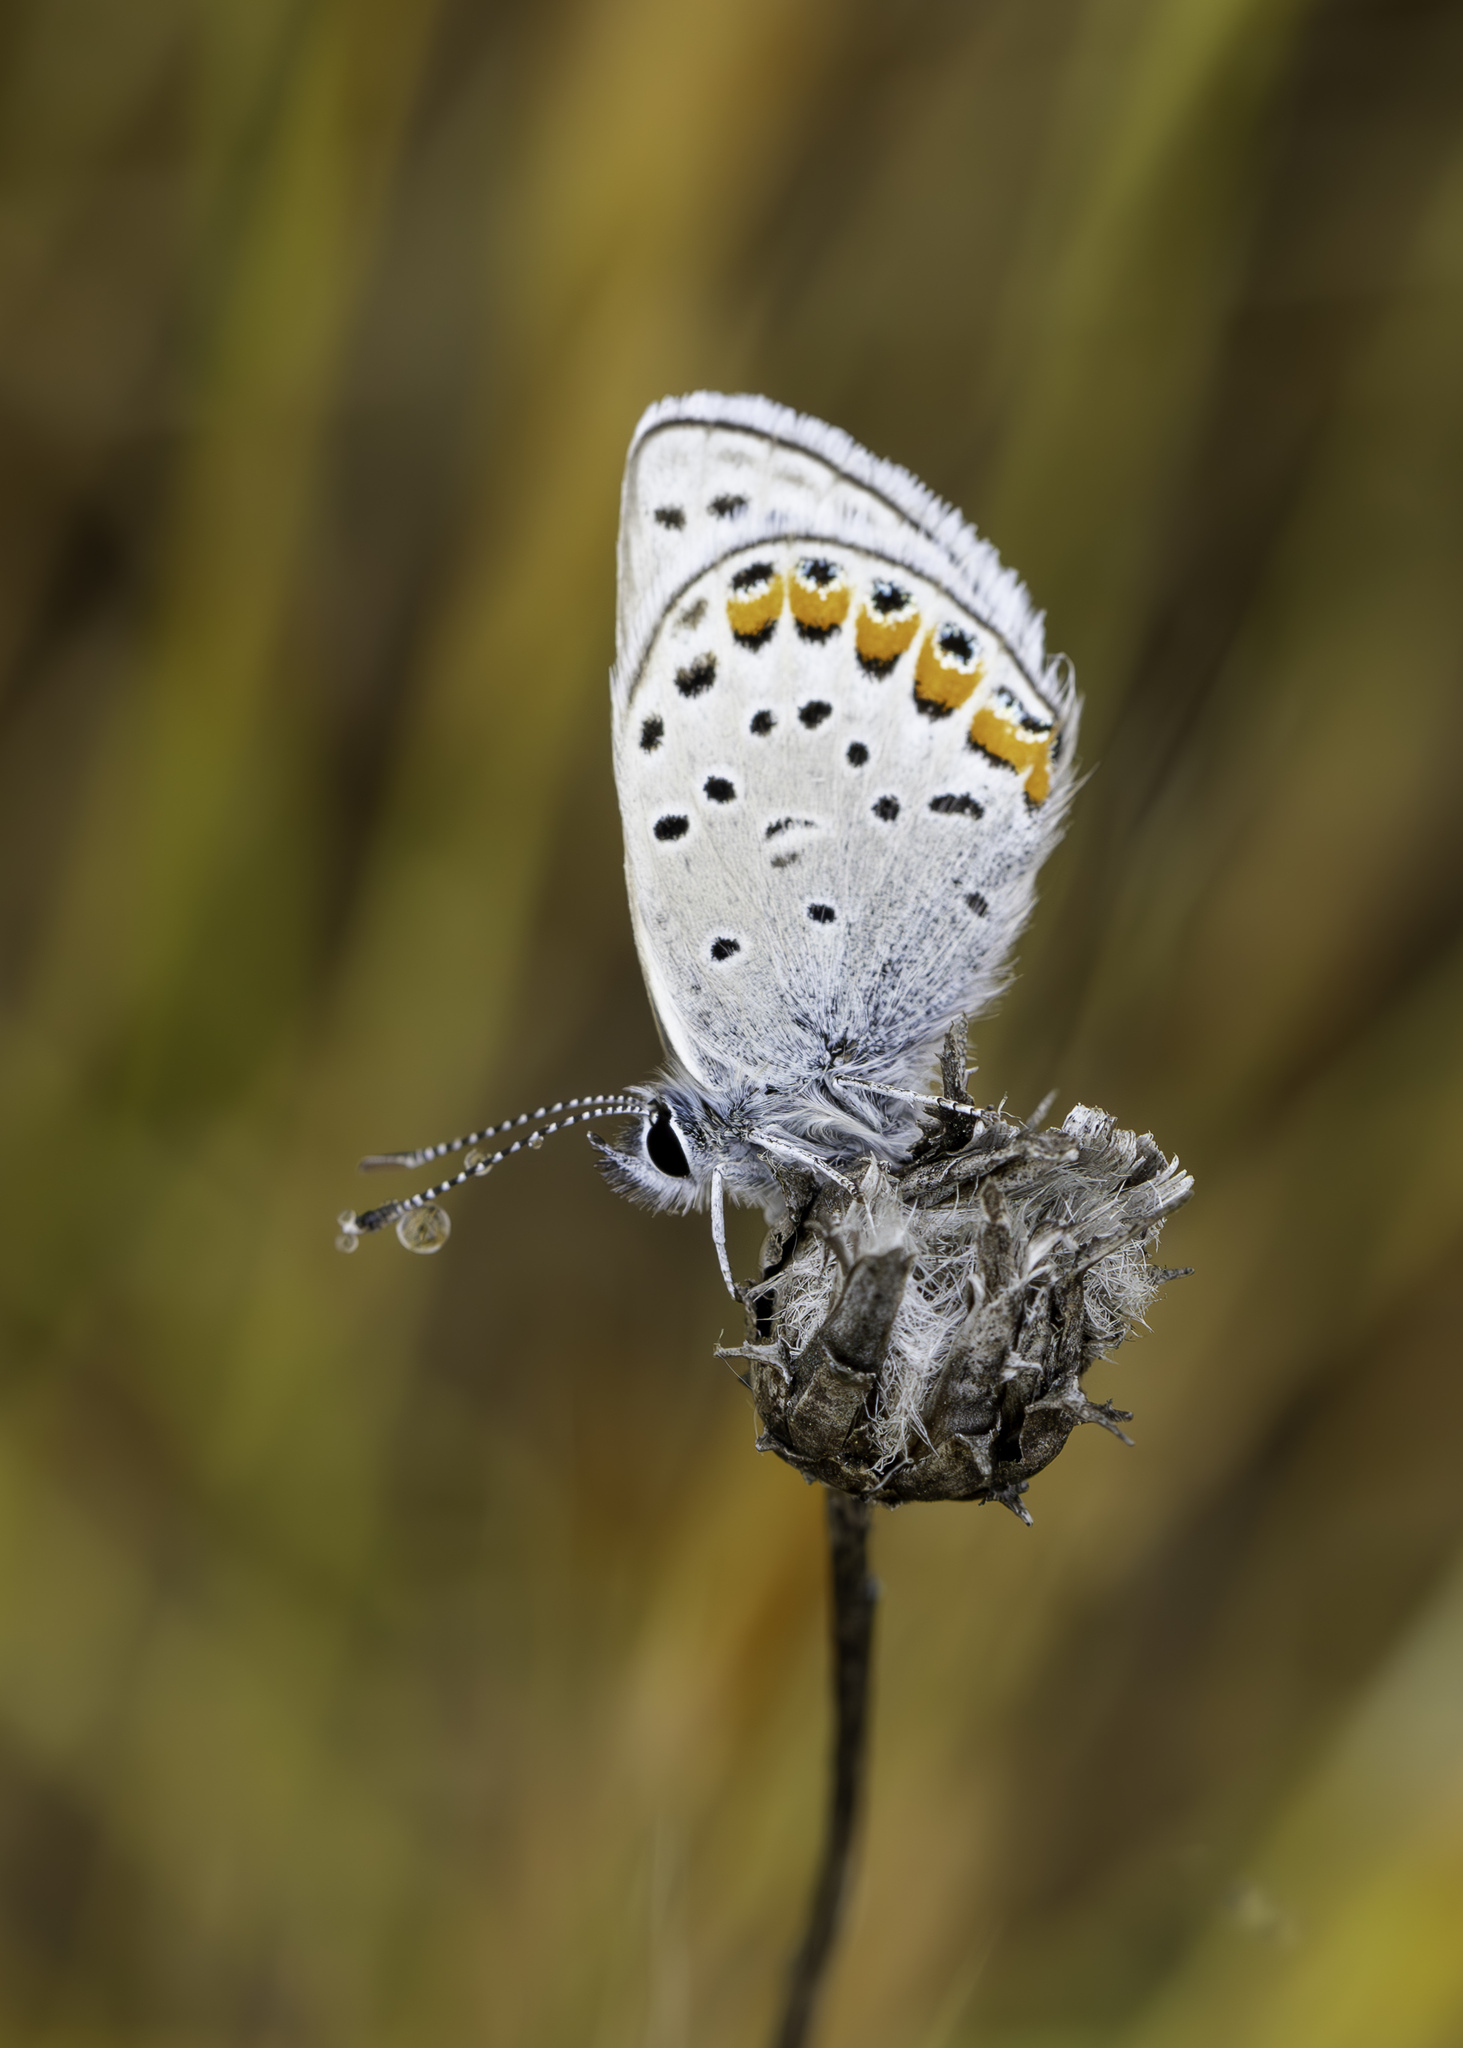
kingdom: Animalia
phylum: Arthropoda
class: Insecta
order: Lepidoptera
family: Lycaenidae
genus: Icaricia
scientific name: Icaricia acmon
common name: Acmon blue
